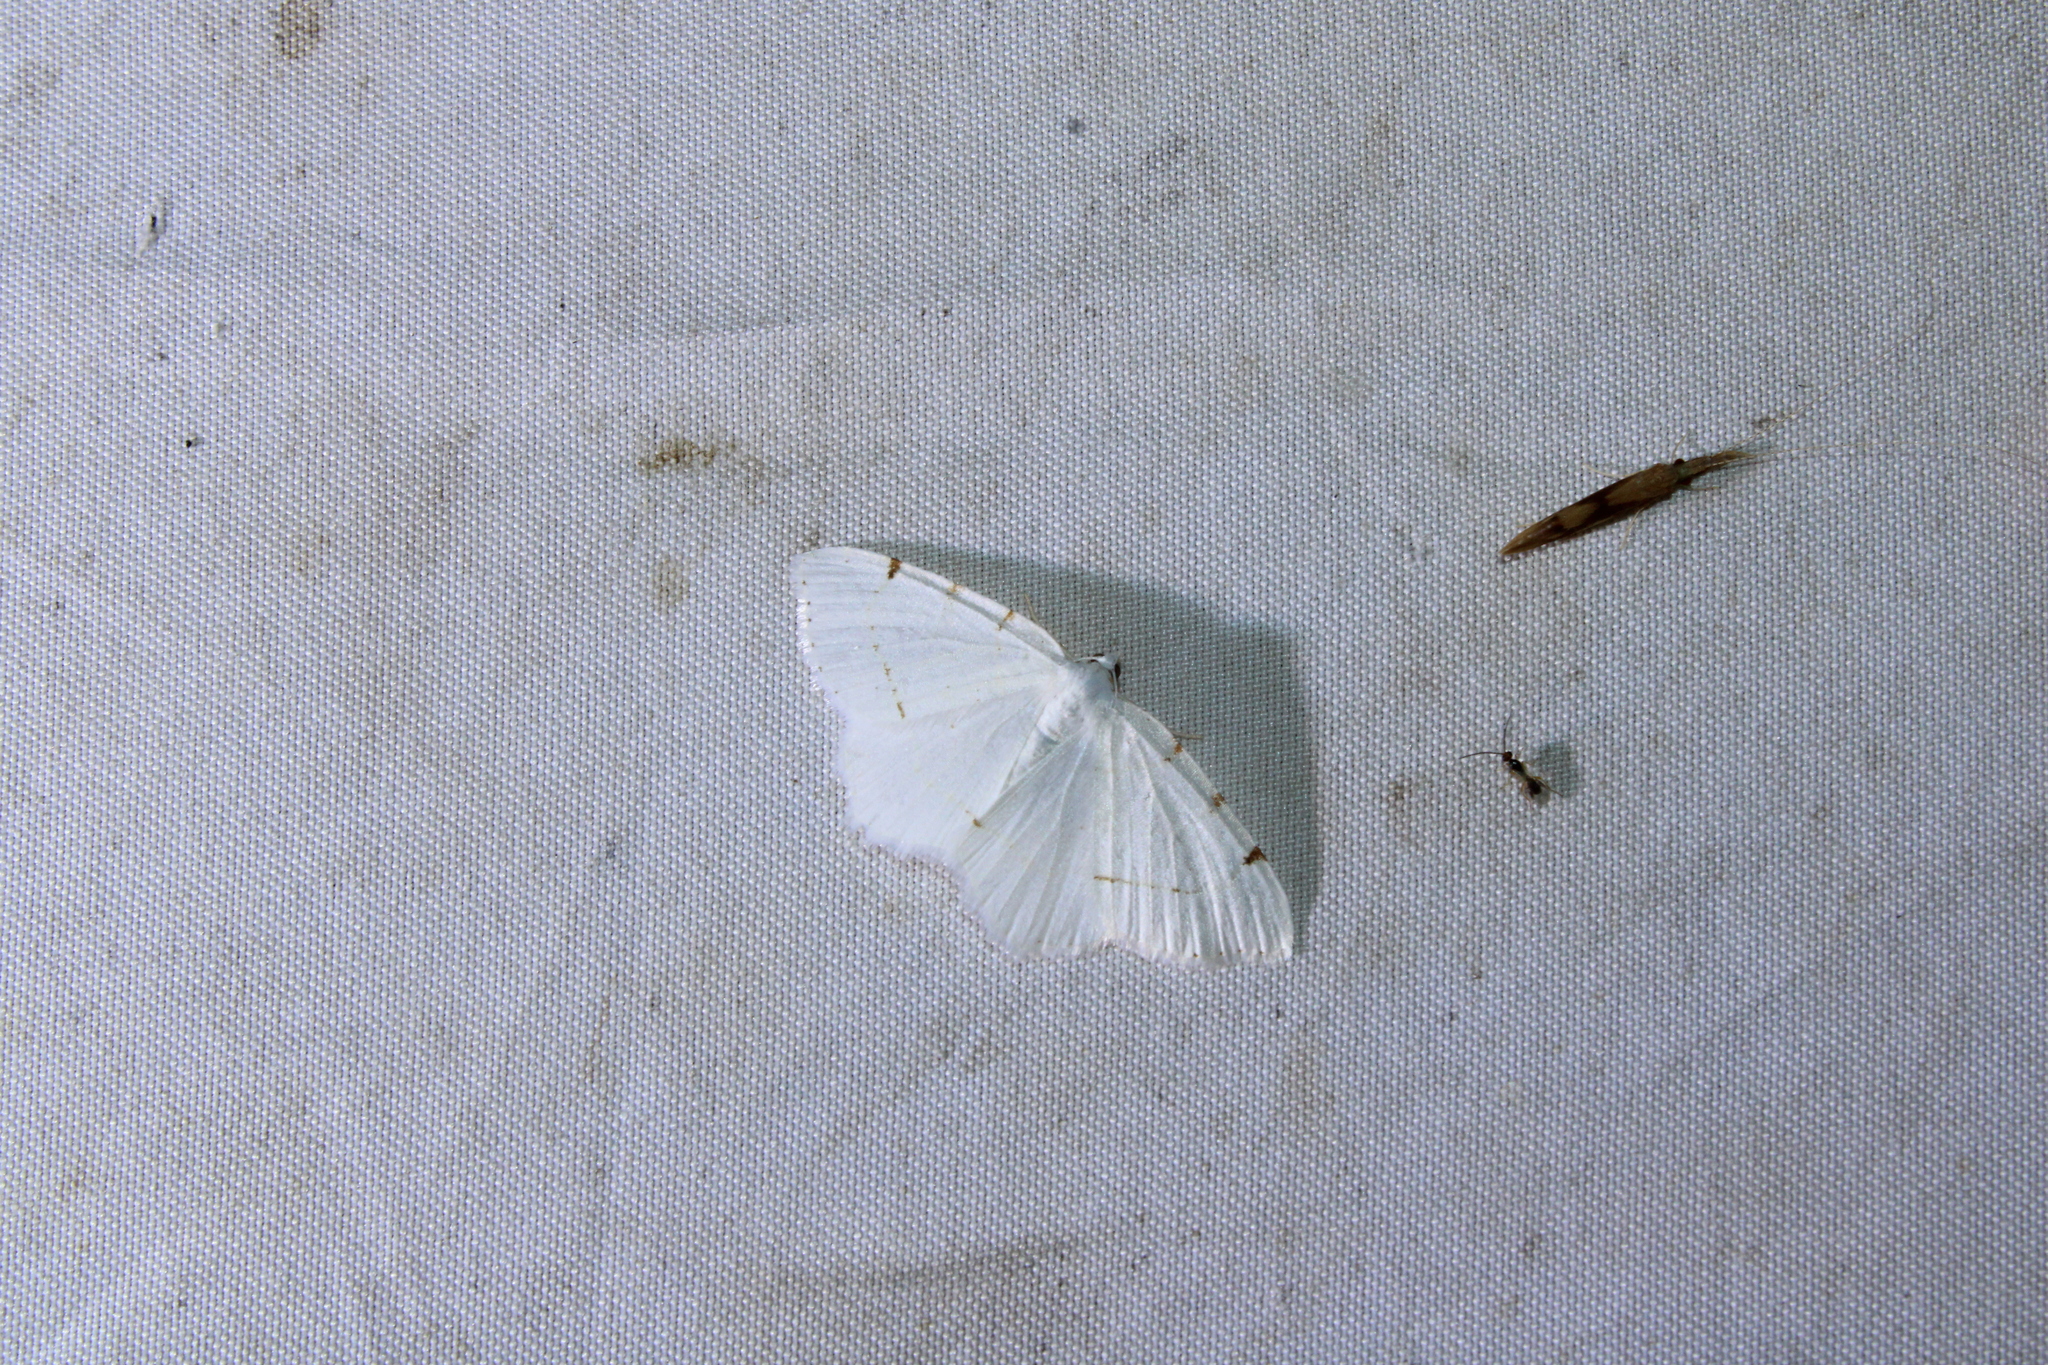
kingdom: Animalia
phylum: Arthropoda
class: Insecta
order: Lepidoptera
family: Geometridae
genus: Macaria
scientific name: Macaria pustularia
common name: Lesser maple spanworm moth
